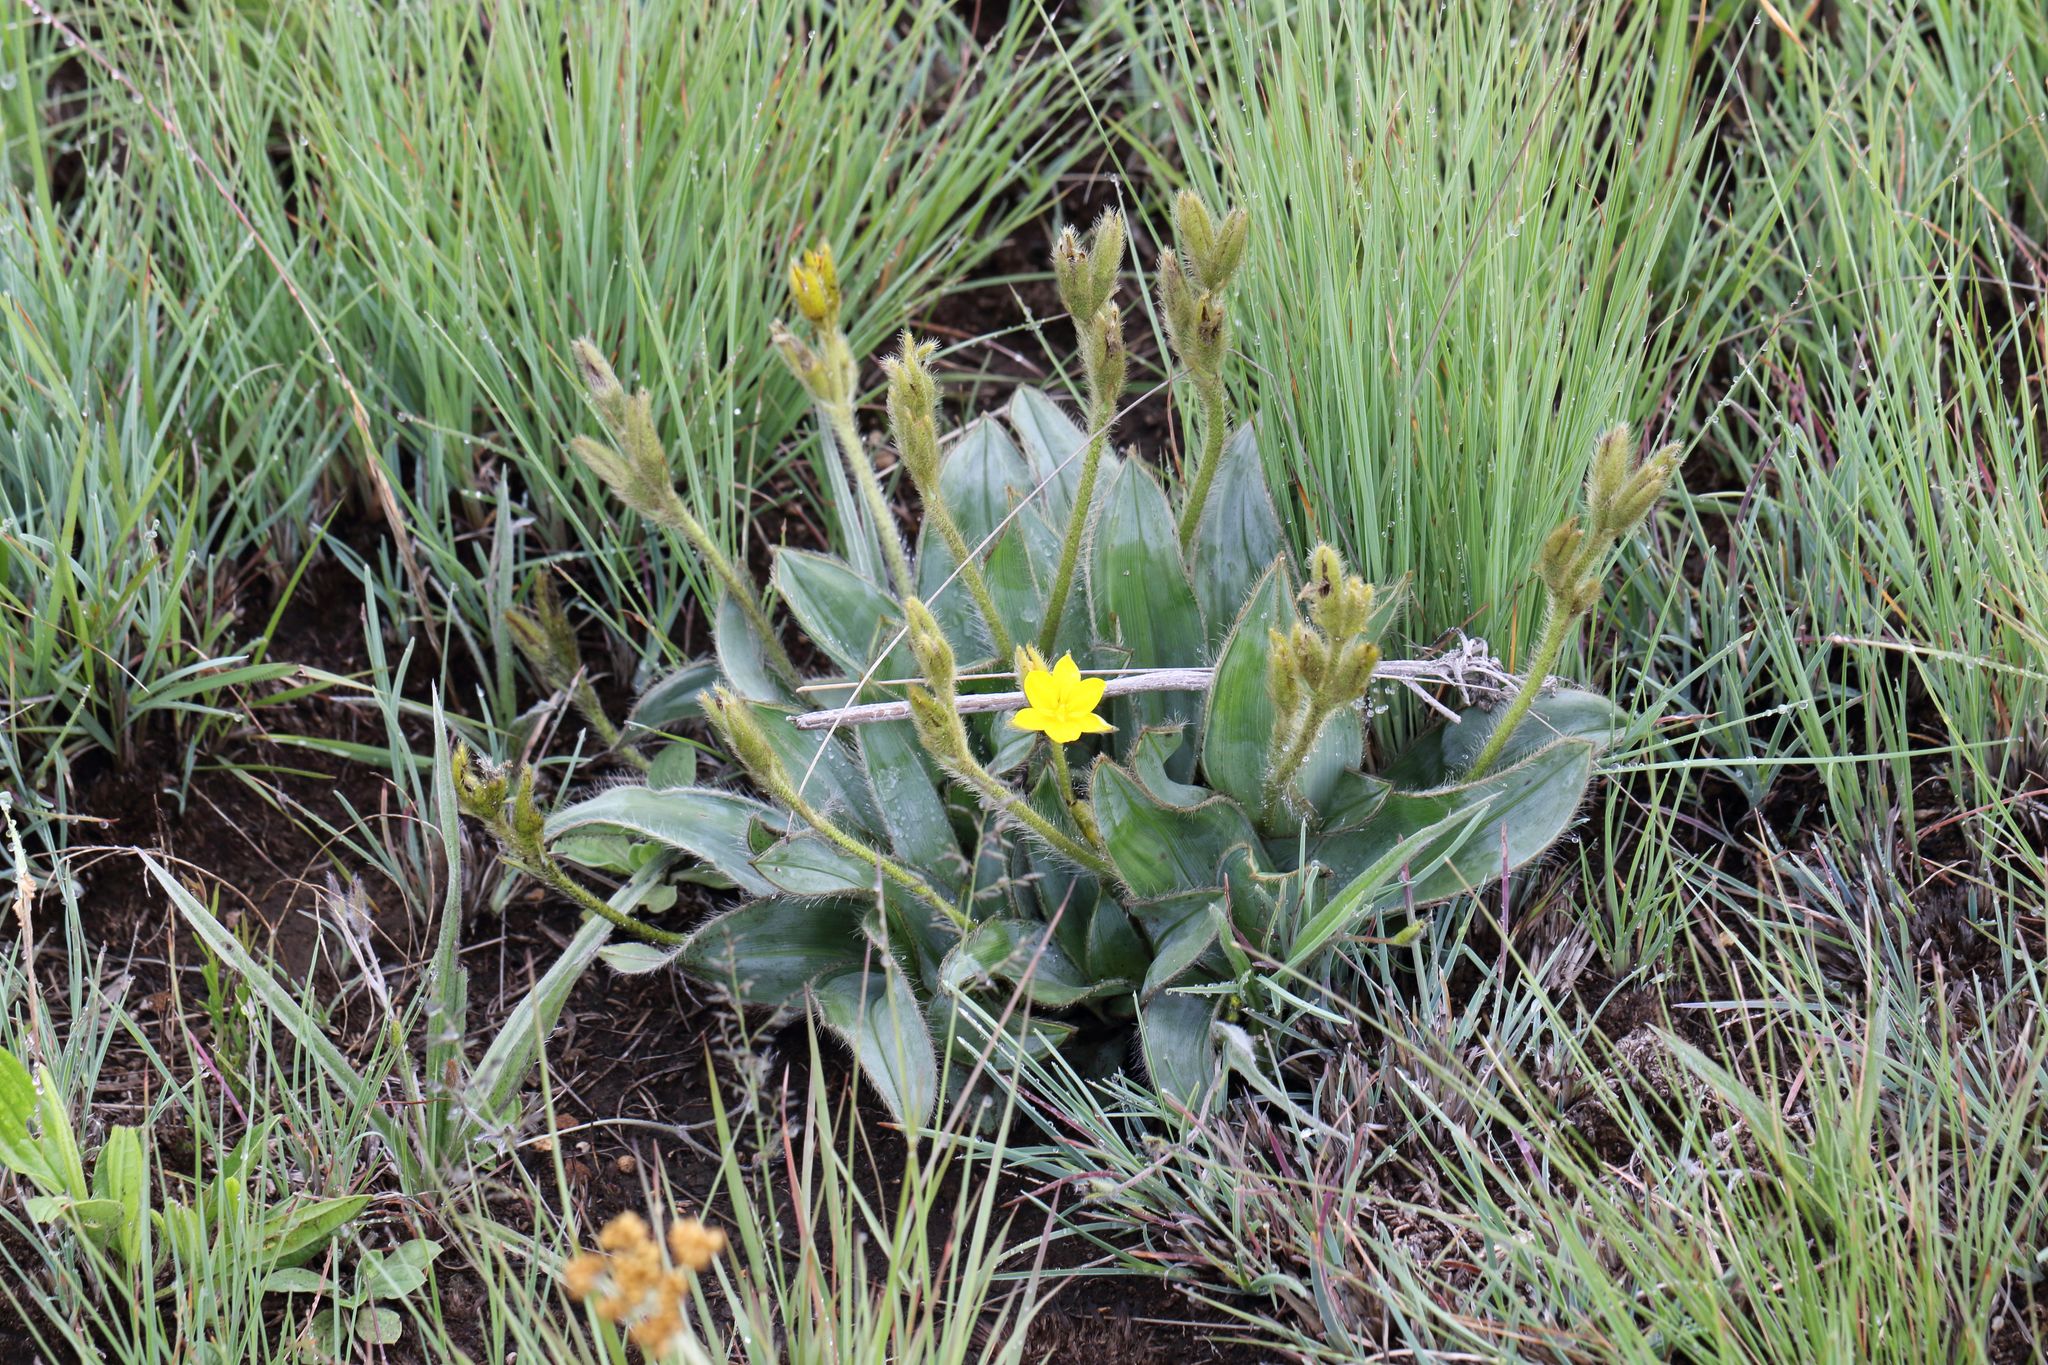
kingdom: Plantae
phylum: Tracheophyta
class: Liliopsida
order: Asparagales
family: Hypoxidaceae
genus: Hypoxis
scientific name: Hypoxis costata
